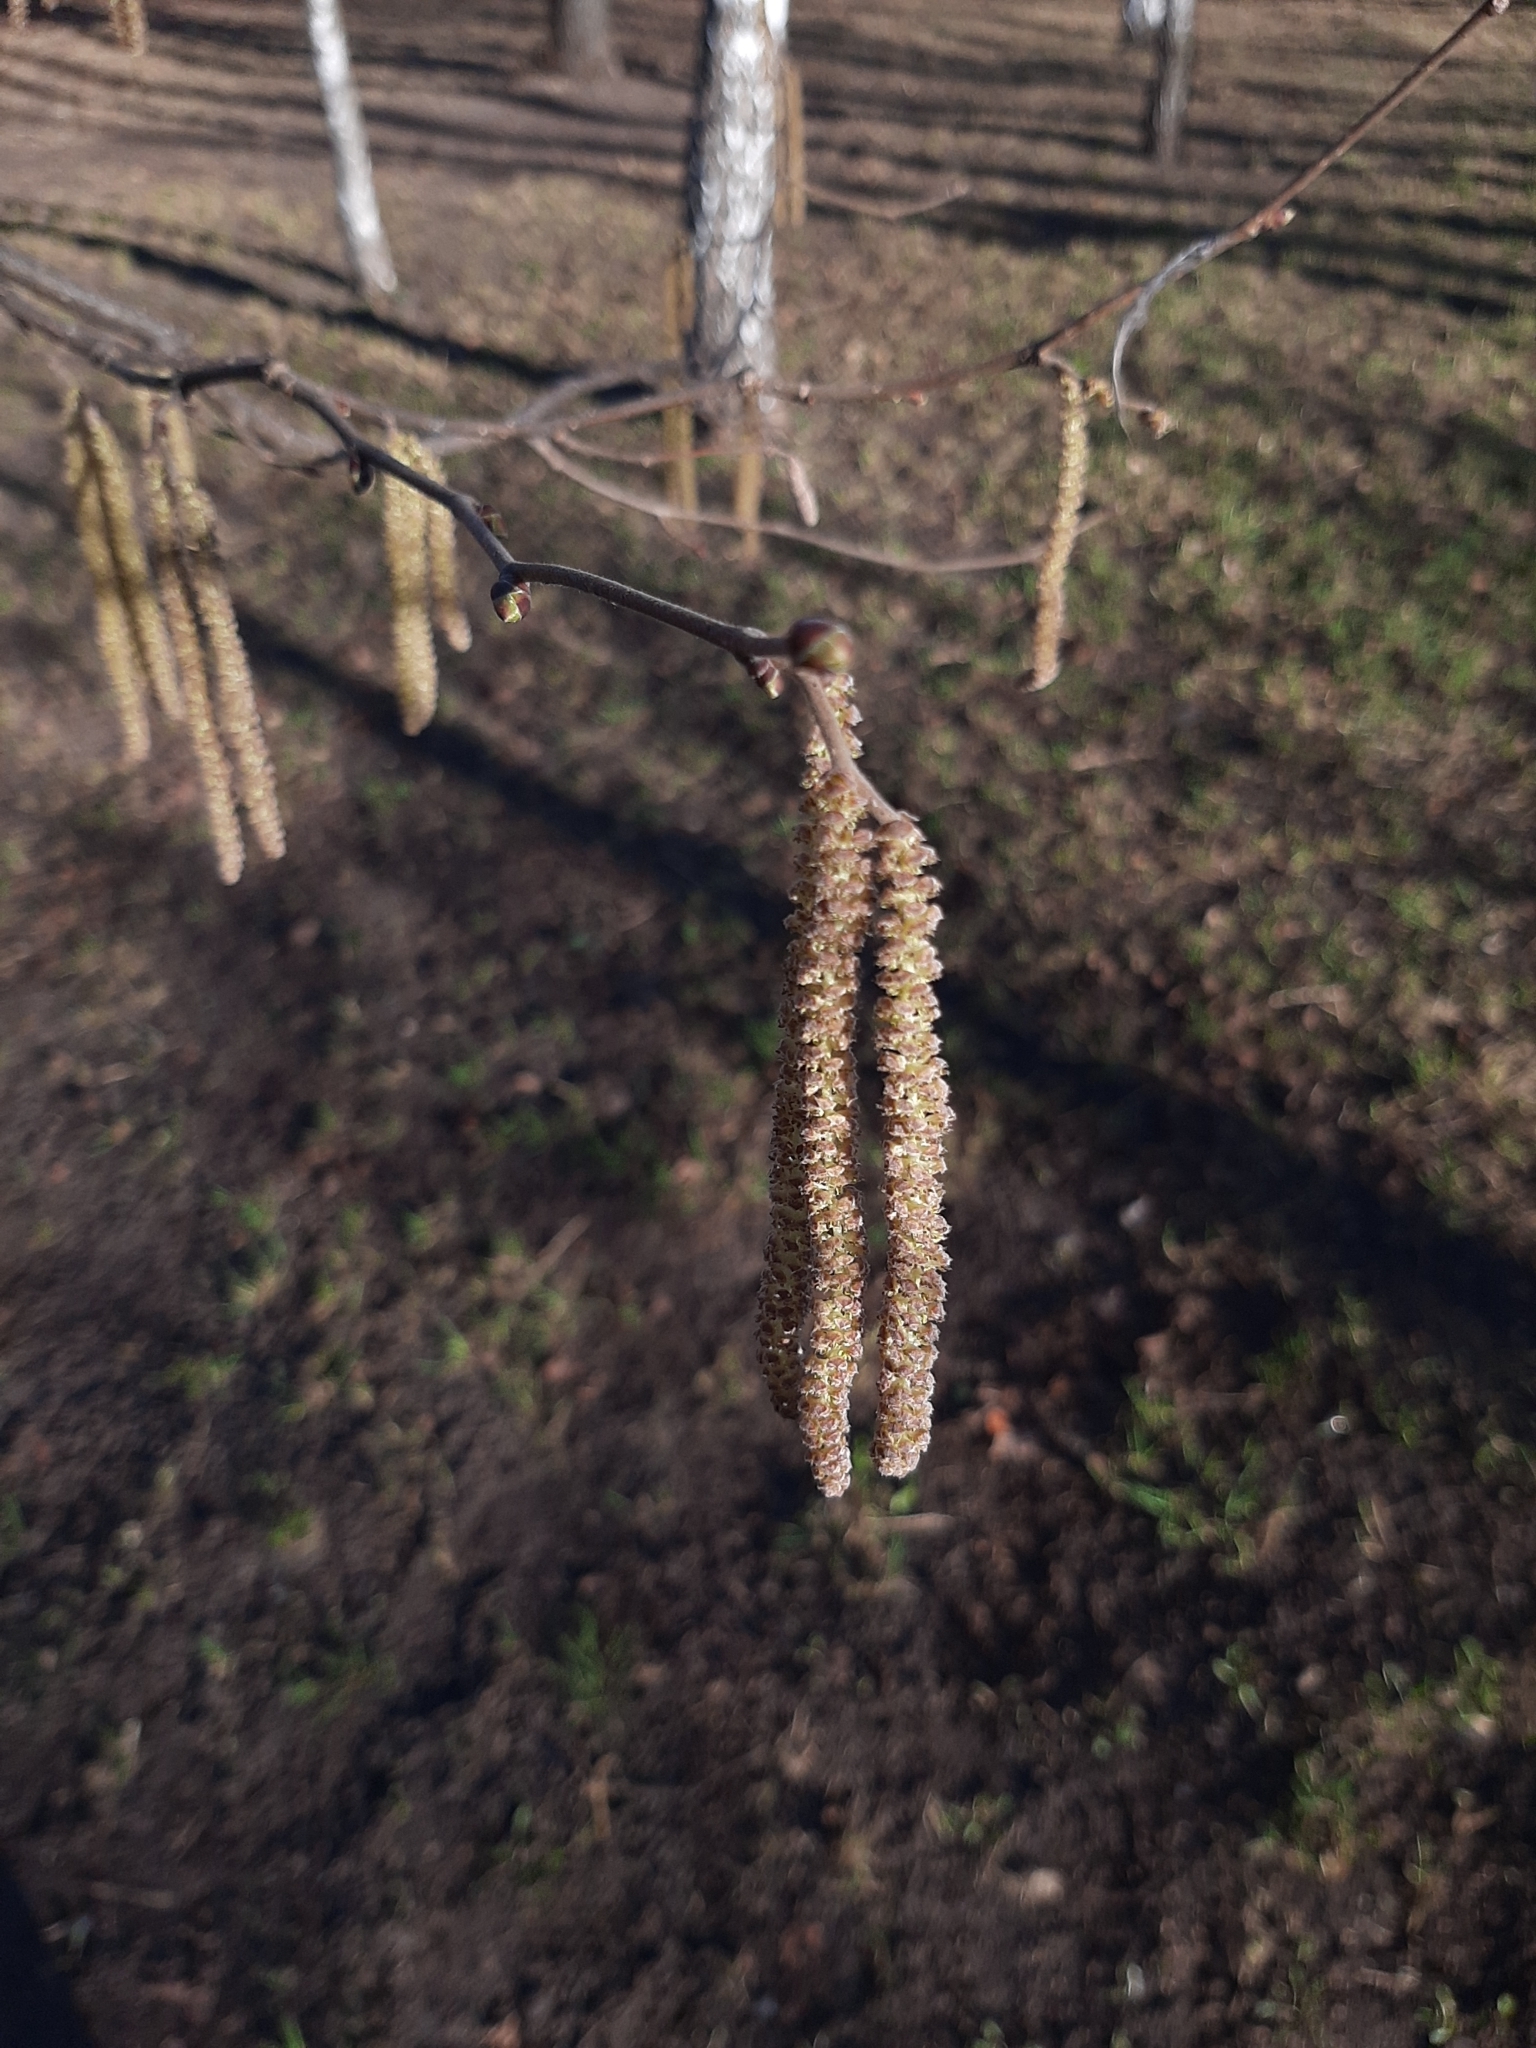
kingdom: Plantae
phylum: Tracheophyta
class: Magnoliopsida
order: Fagales
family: Betulaceae
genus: Corylus
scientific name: Corylus avellana
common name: European hazel
